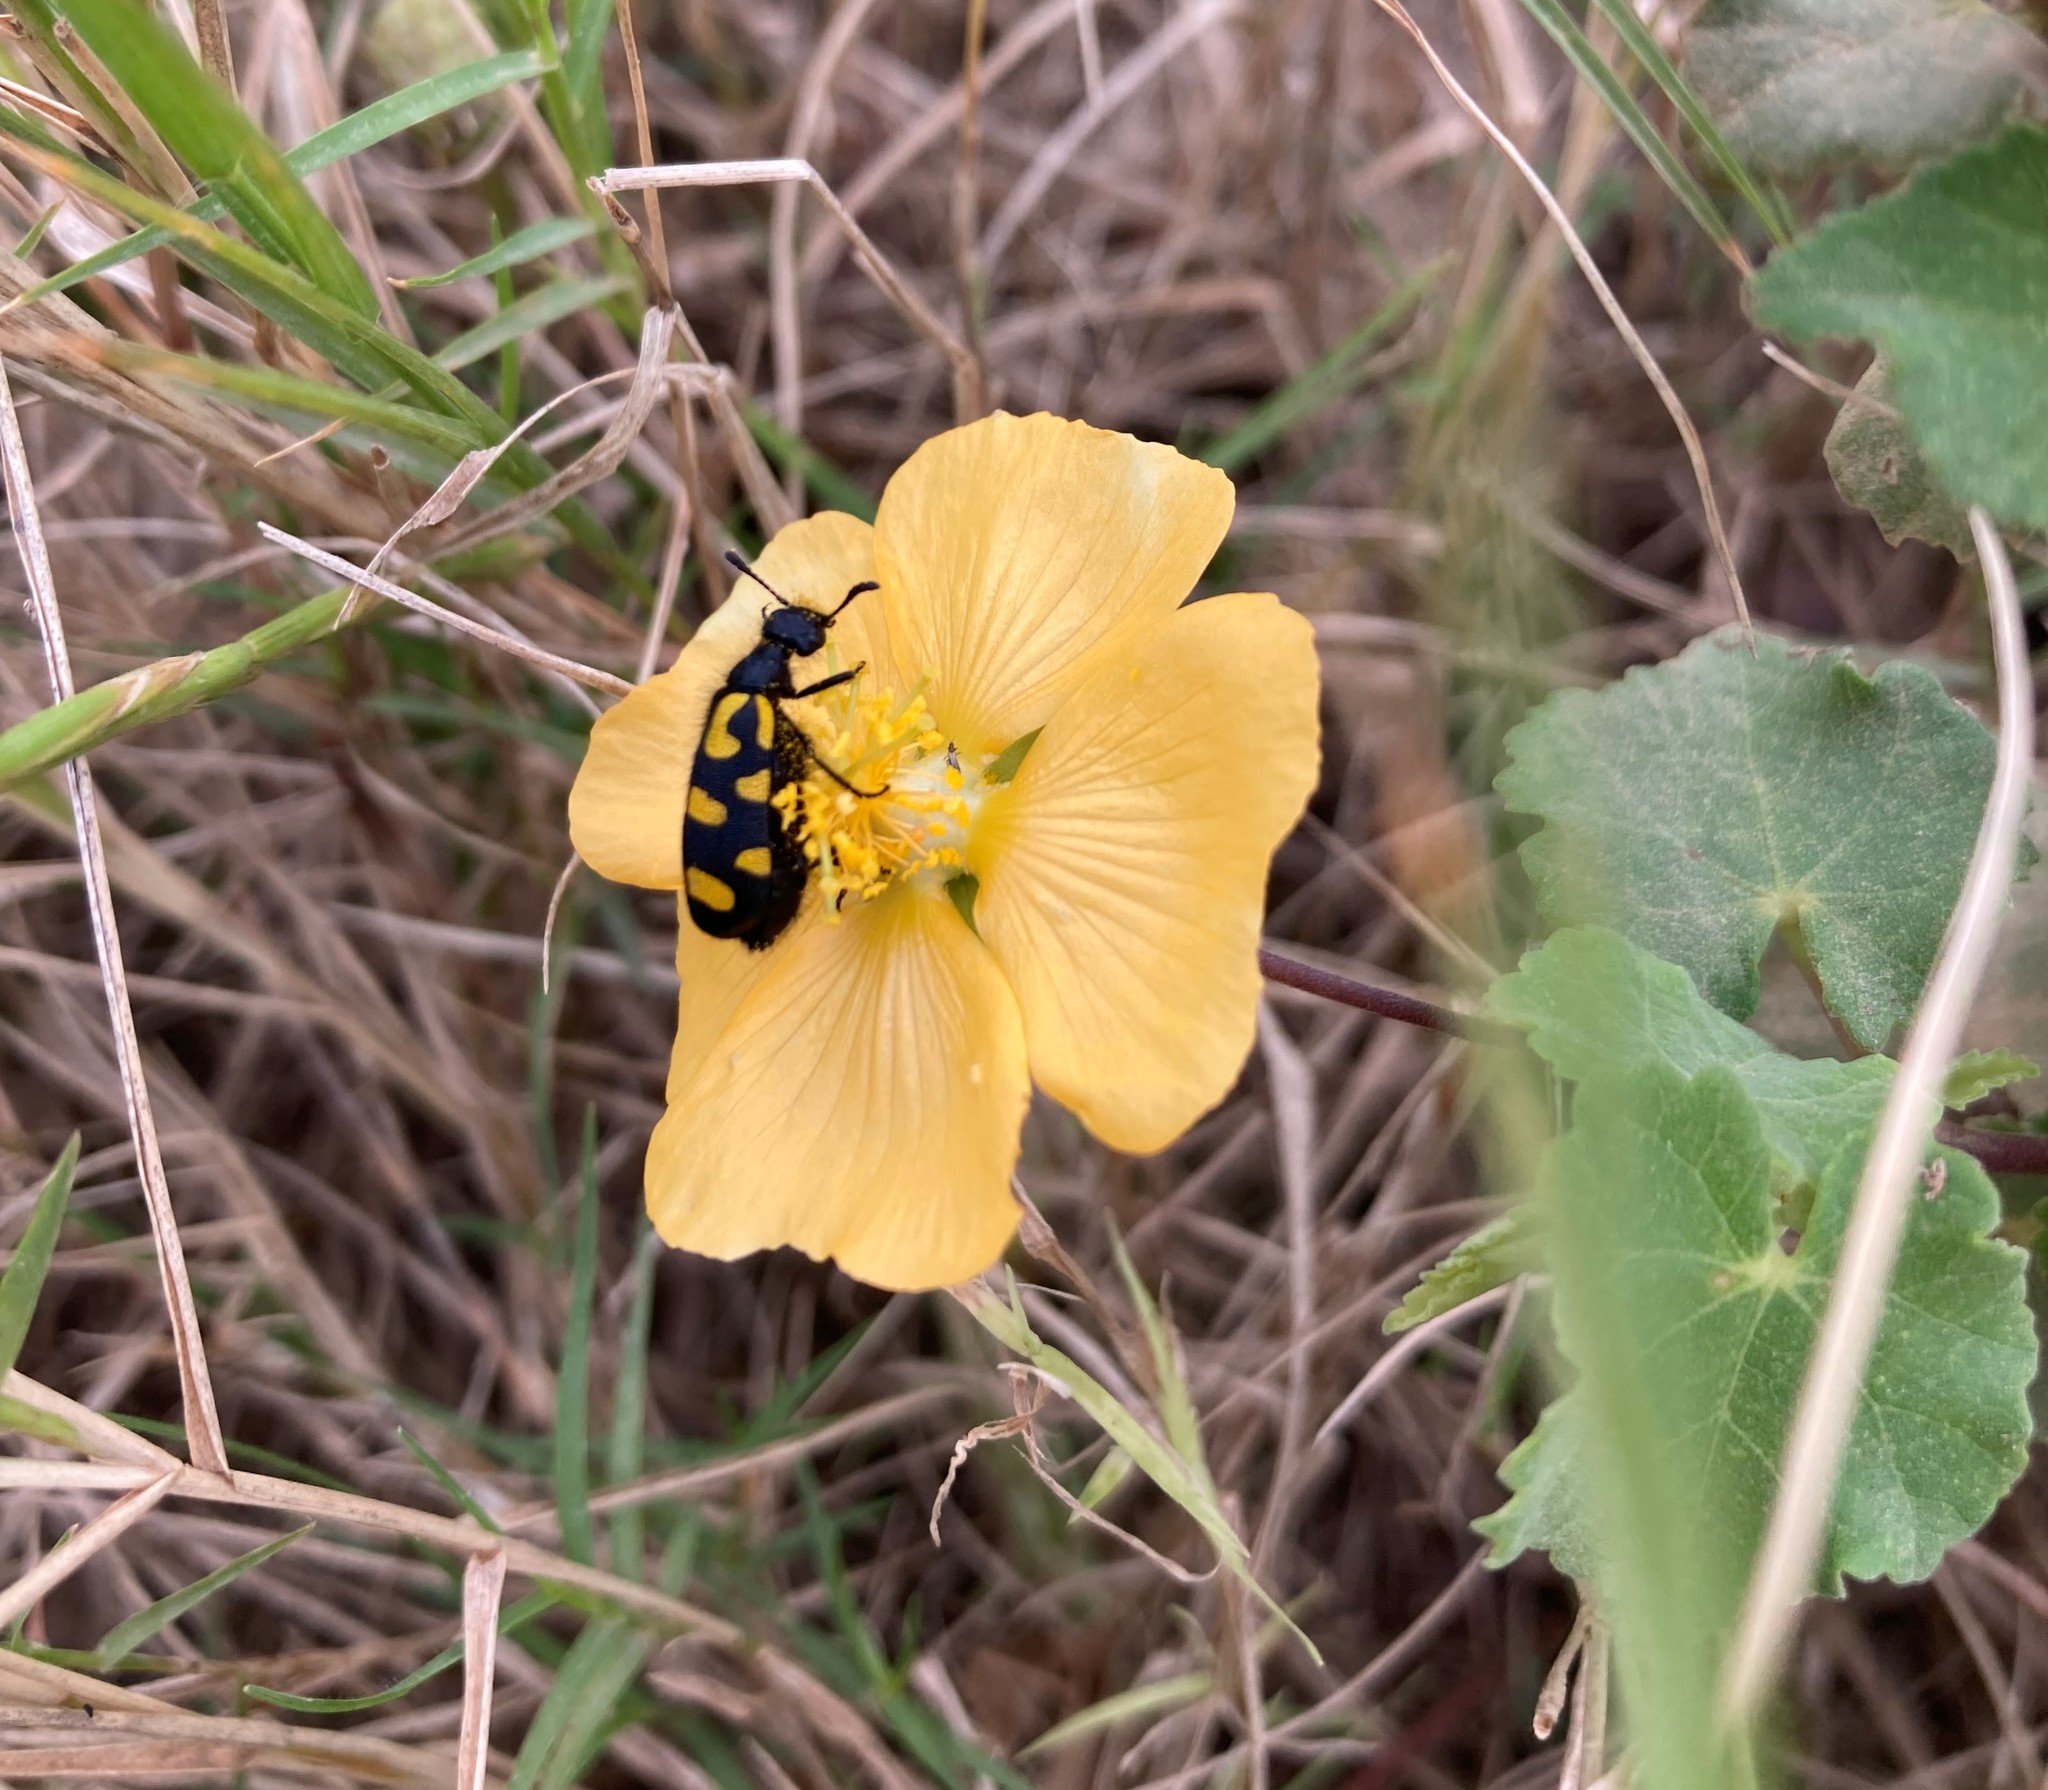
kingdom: Animalia
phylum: Arthropoda
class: Insecta
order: Coleoptera
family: Meloidae
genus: Ceroctis
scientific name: Ceroctis capensis
